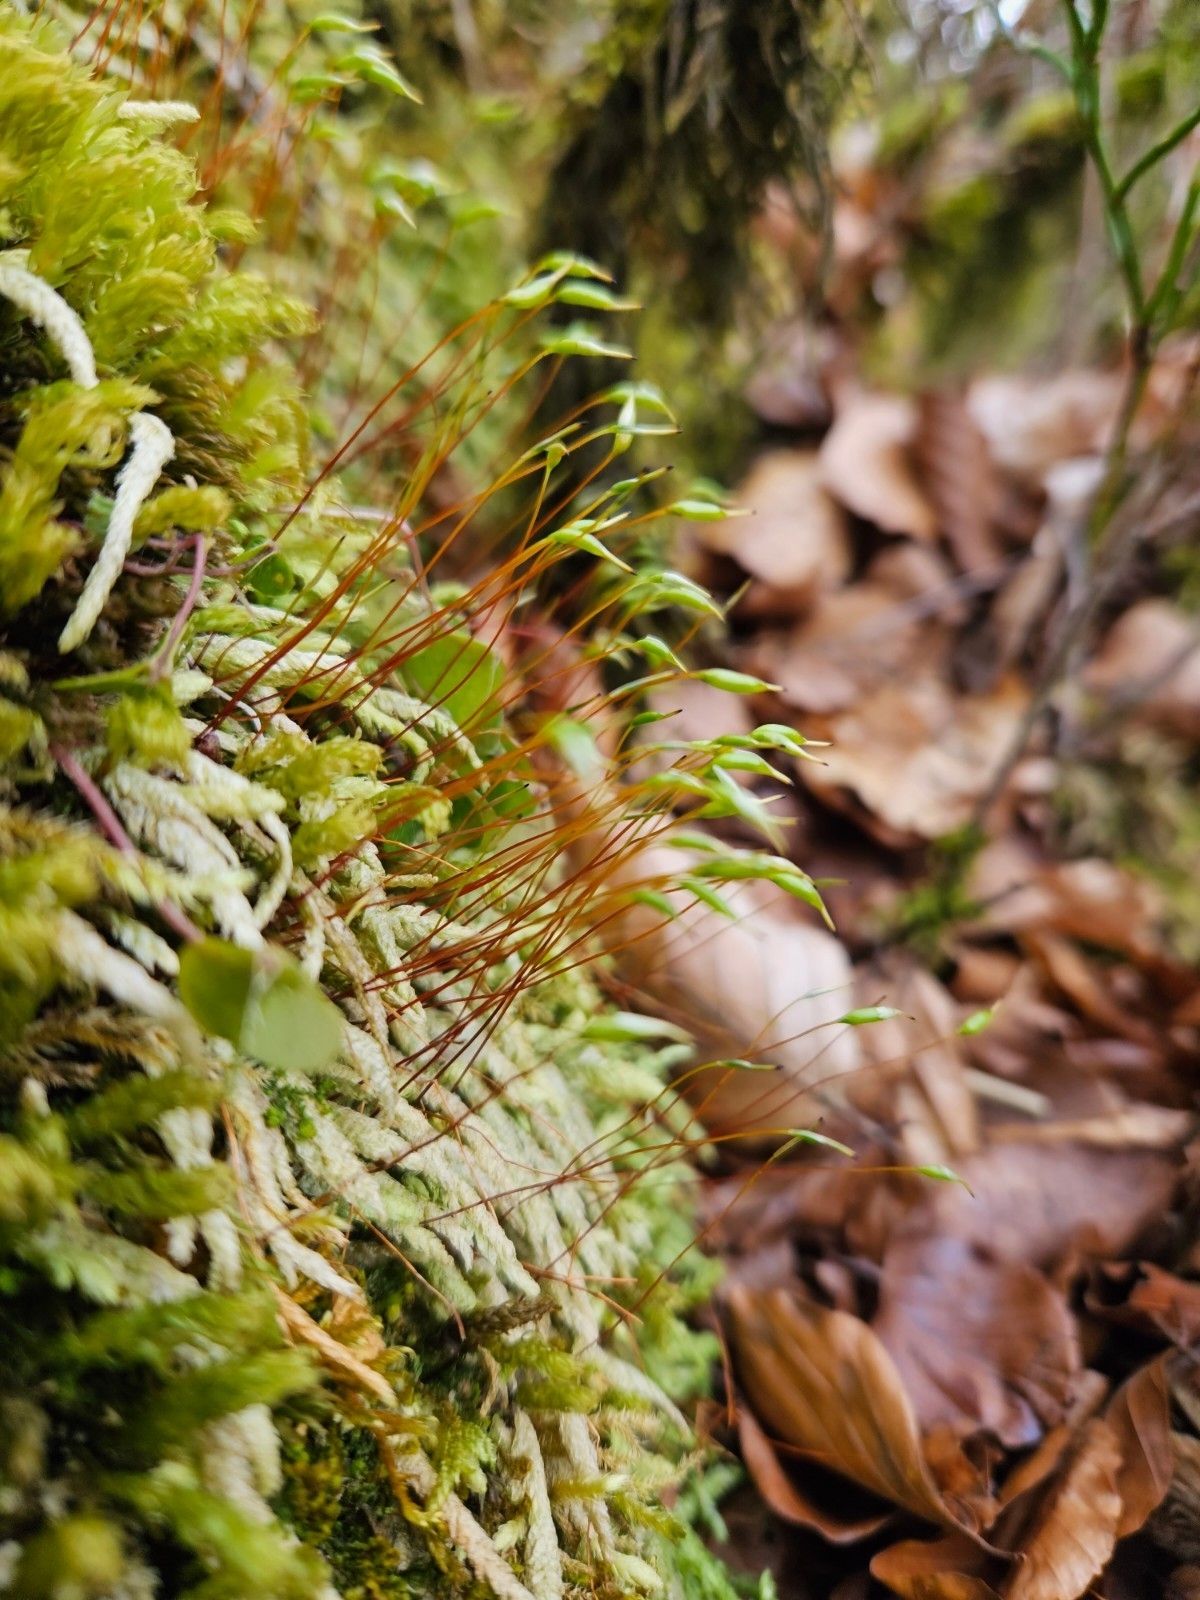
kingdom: Plantae
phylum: Bryophyta
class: Bryopsida
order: Hypnales
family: Plagiotheciaceae
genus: Plagiothecium
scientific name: Plagiothecium undulatum
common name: Waved silk-moss
